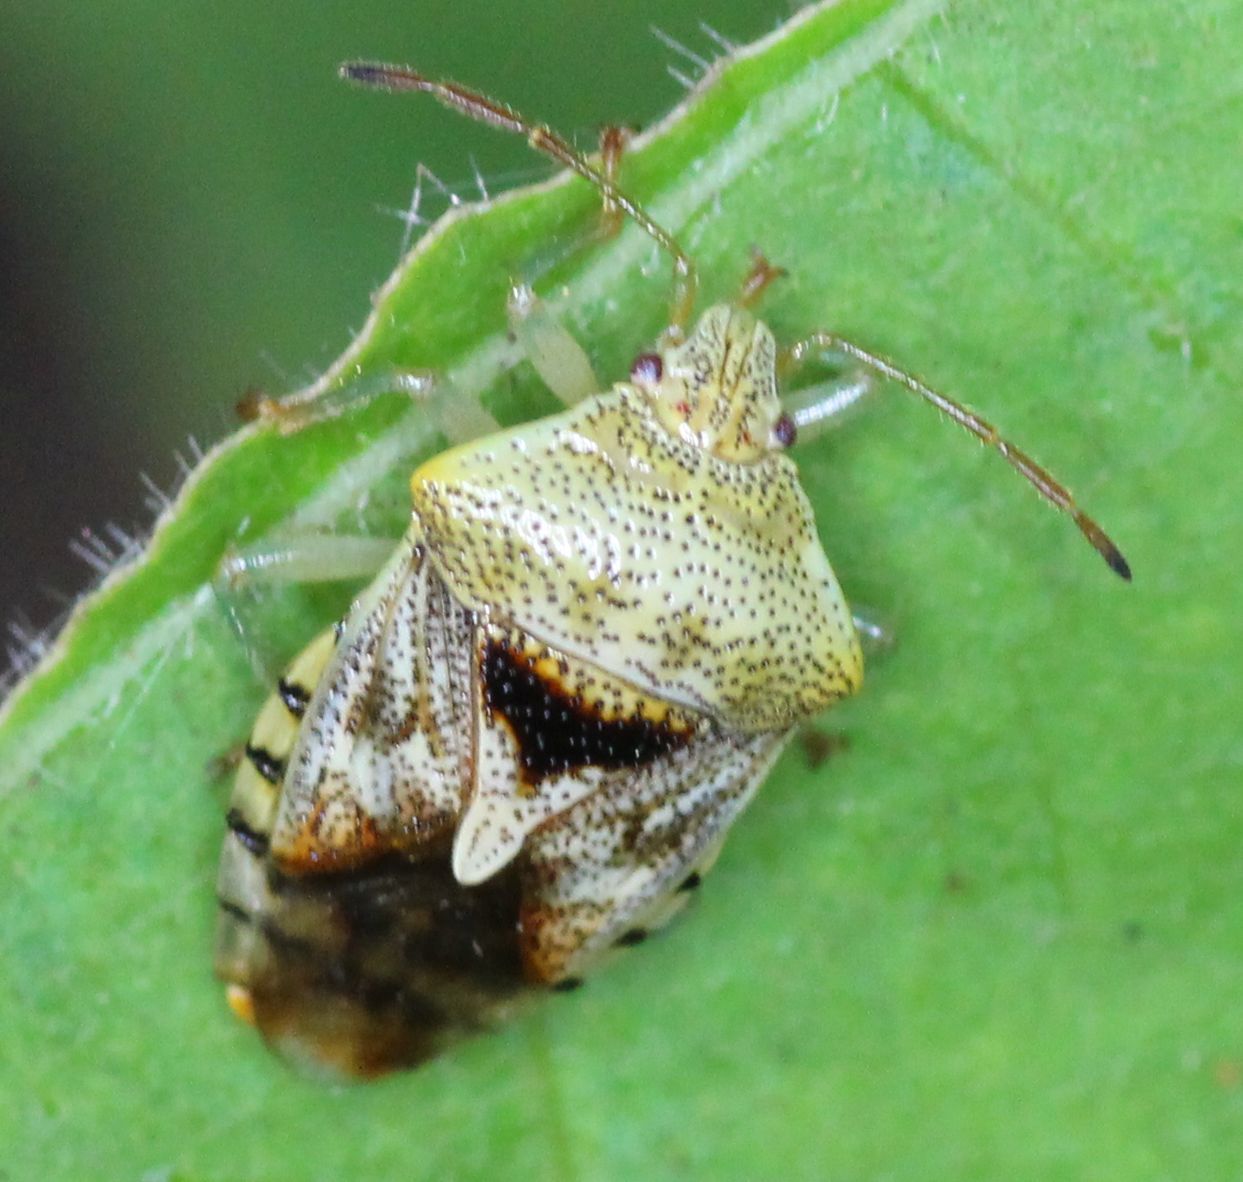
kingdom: Animalia
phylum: Arthropoda
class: Insecta
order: Hemiptera
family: Acanthosomatidae
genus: Elasmucha
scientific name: Elasmucha grisea
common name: Parent bug
